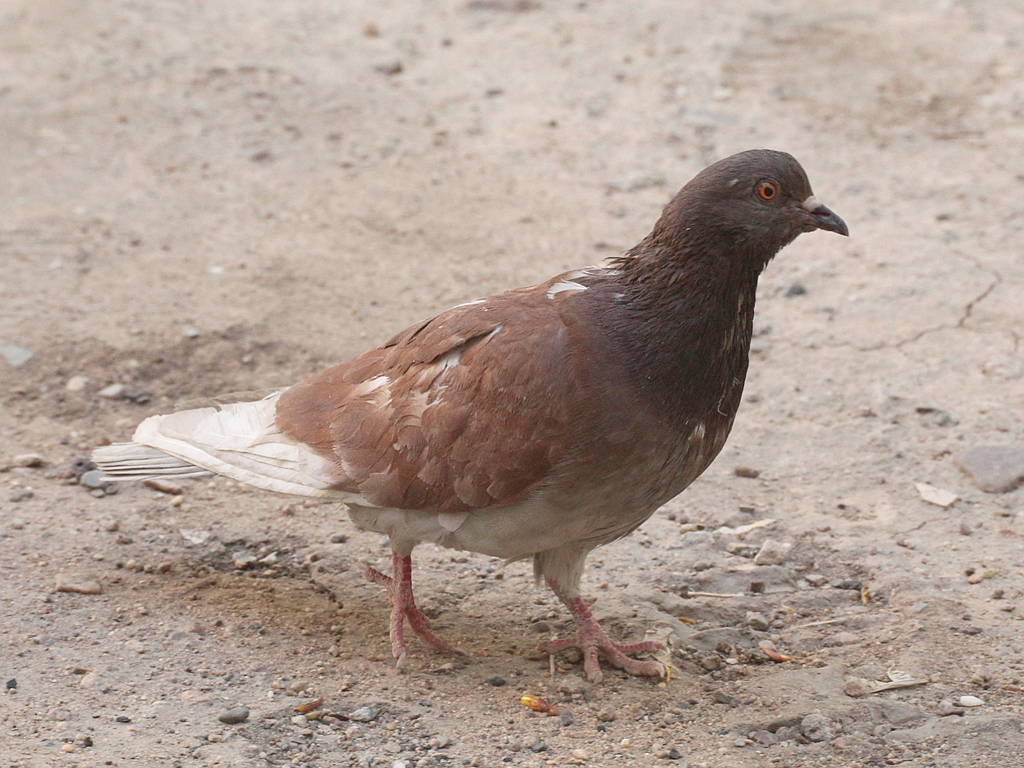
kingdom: Animalia
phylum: Chordata
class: Aves
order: Columbiformes
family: Columbidae
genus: Columba
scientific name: Columba livia
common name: Rock pigeon
